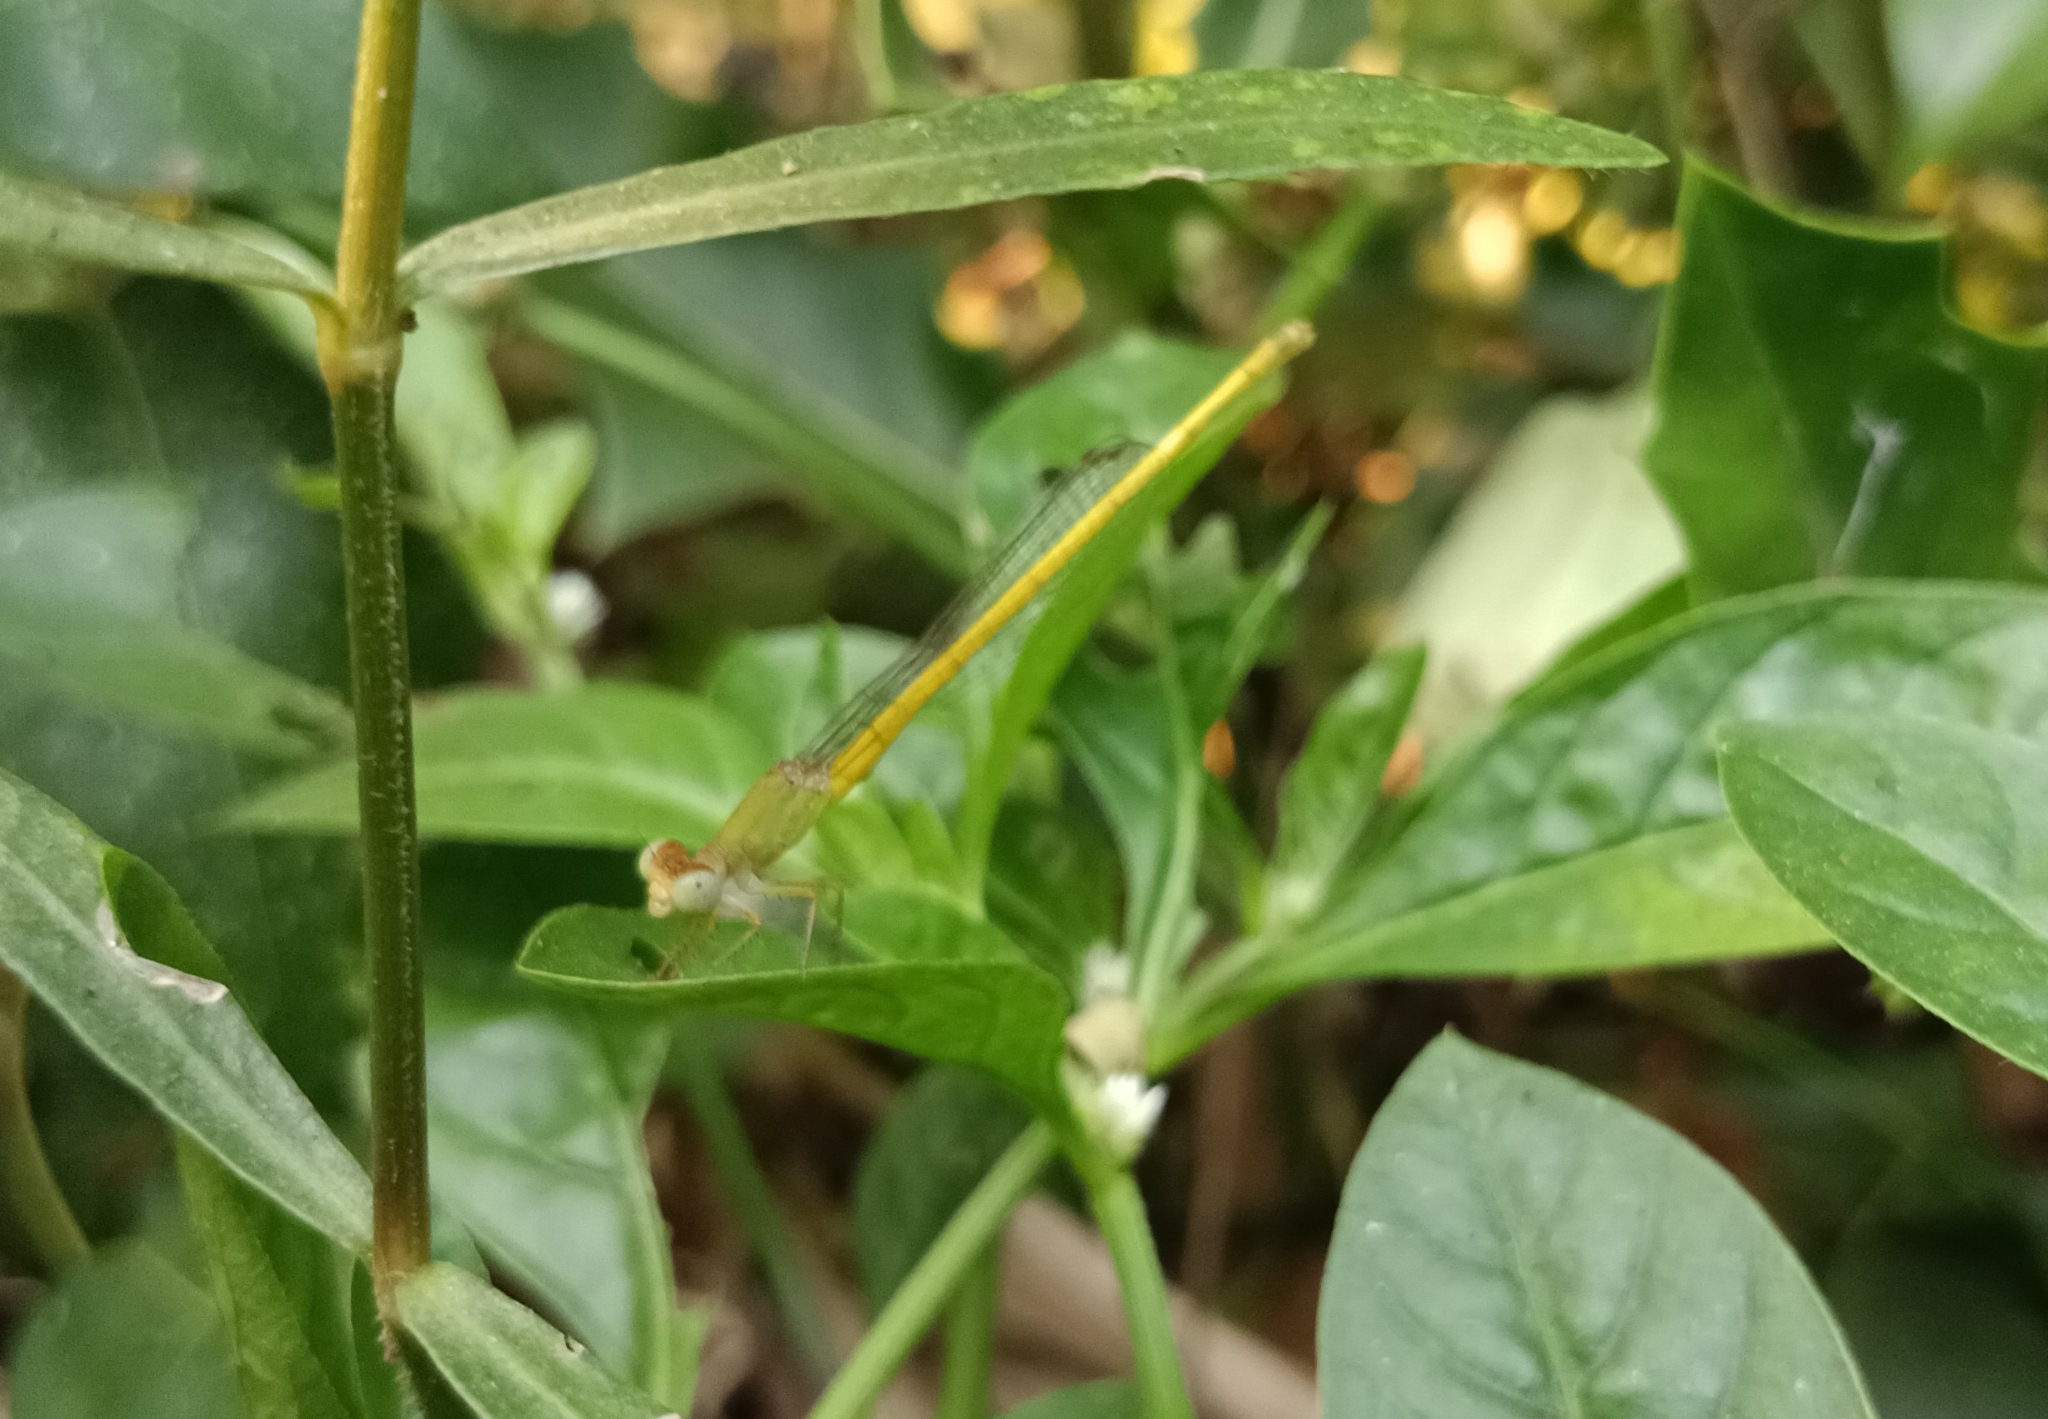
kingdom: Animalia
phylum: Arthropoda
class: Insecta
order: Odonata
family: Coenagrionidae
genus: Ceriagrion
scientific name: Ceriagrion coromandelianum
